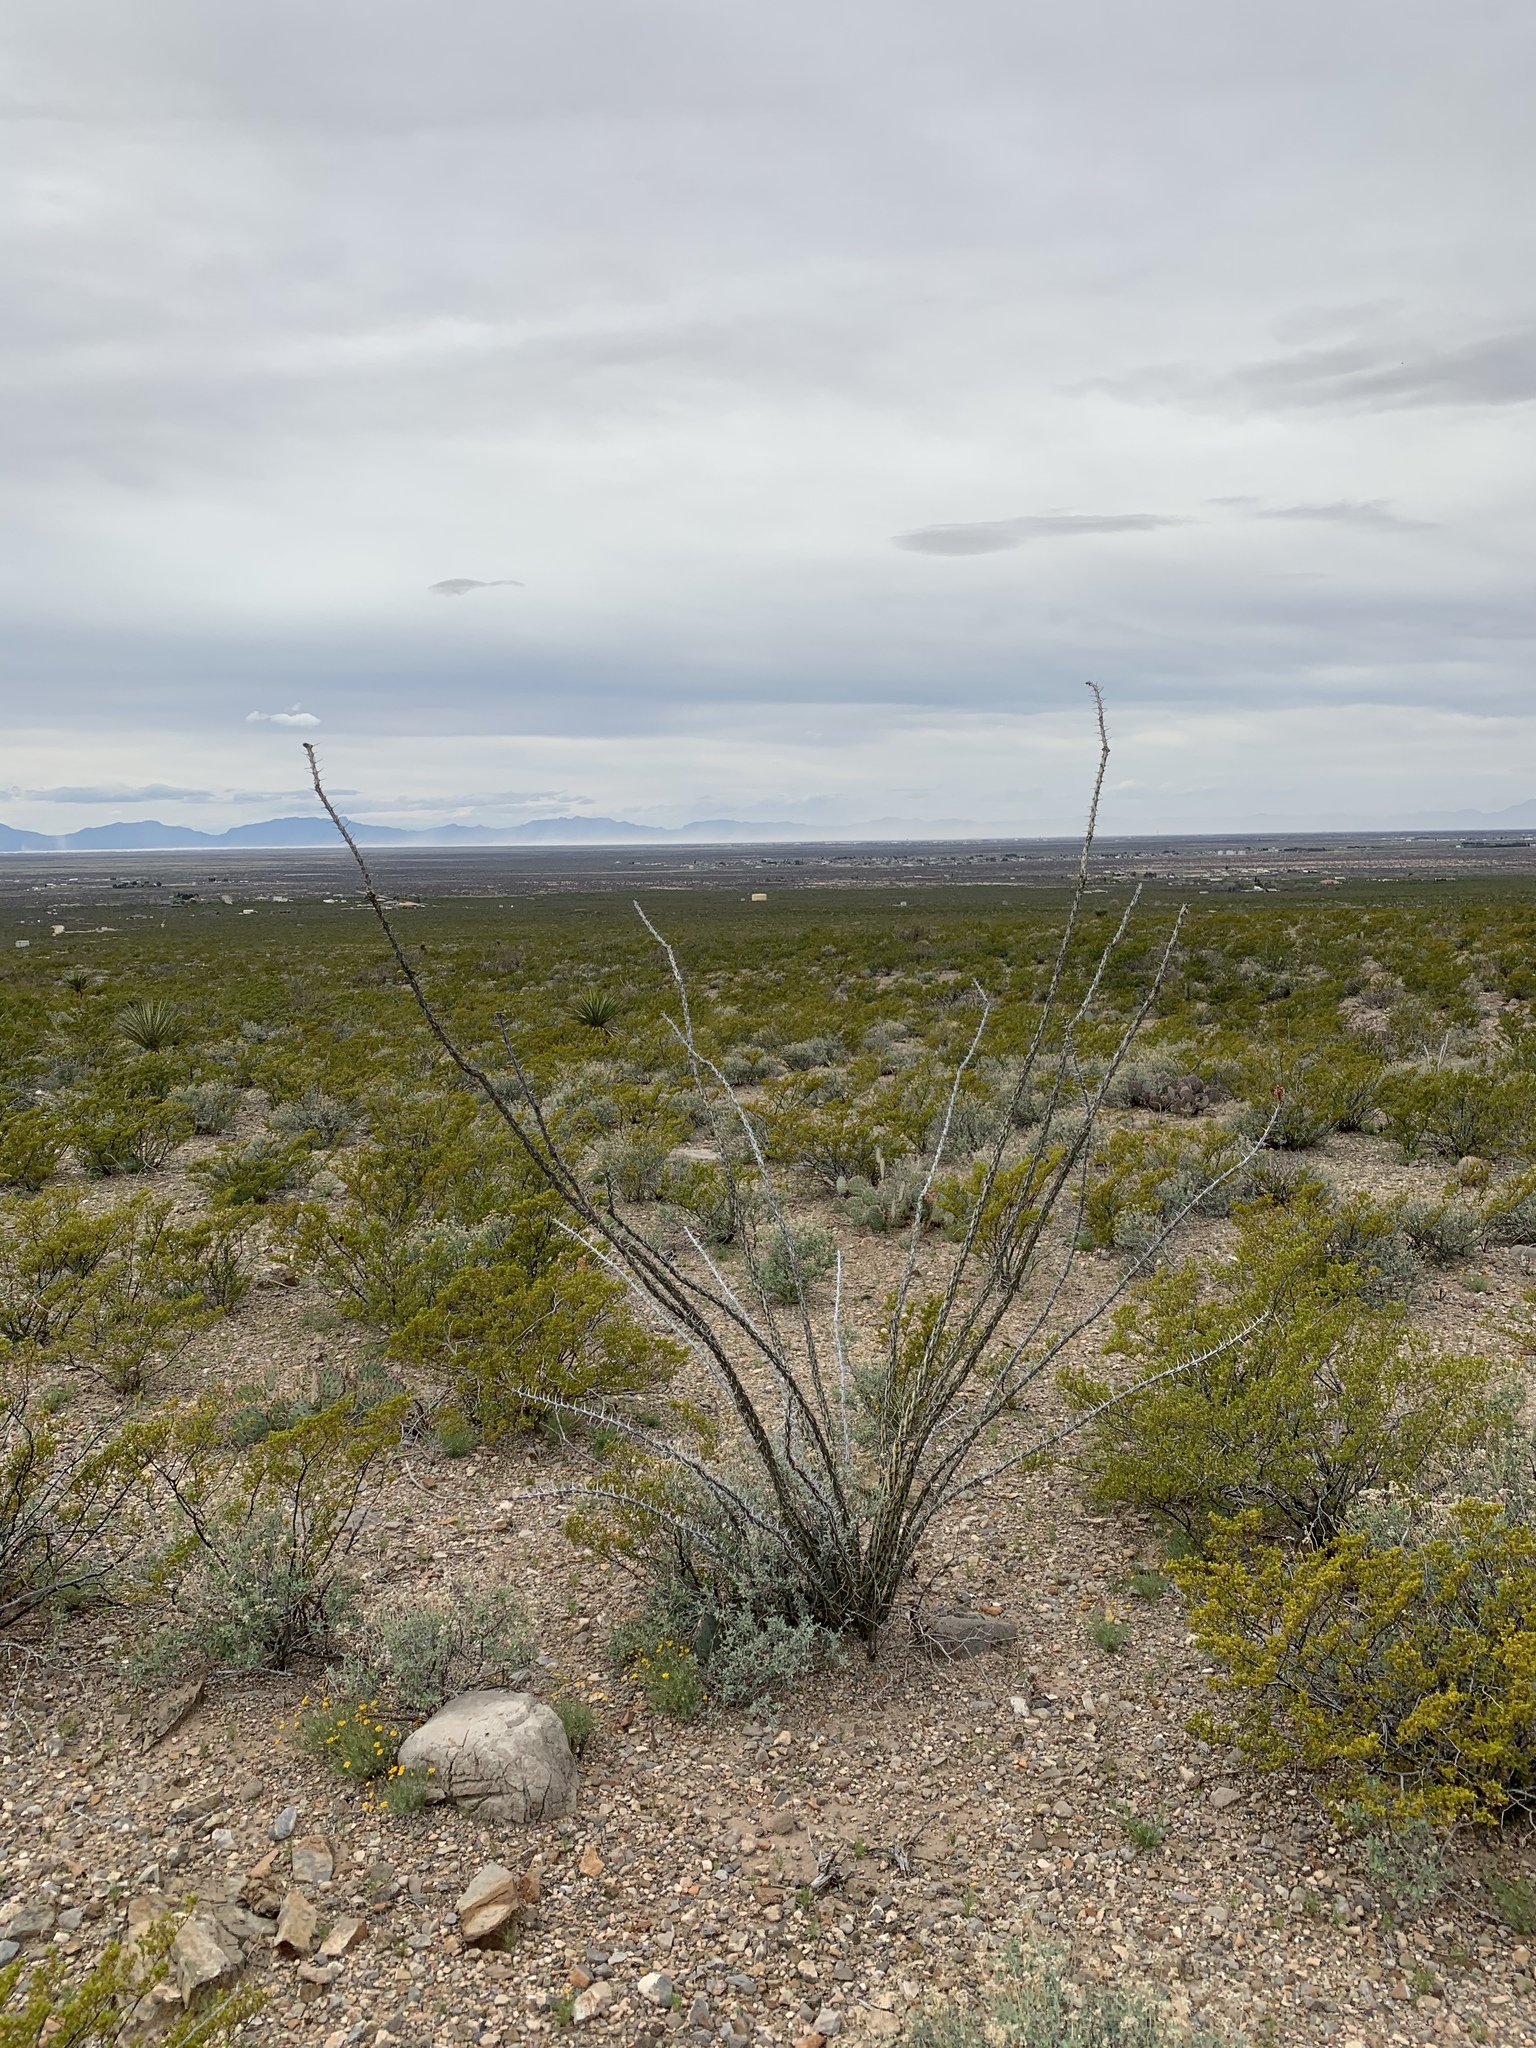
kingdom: Plantae
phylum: Tracheophyta
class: Magnoliopsida
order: Ericales
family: Fouquieriaceae
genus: Fouquieria
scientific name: Fouquieria splendens
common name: Vine-cactus
